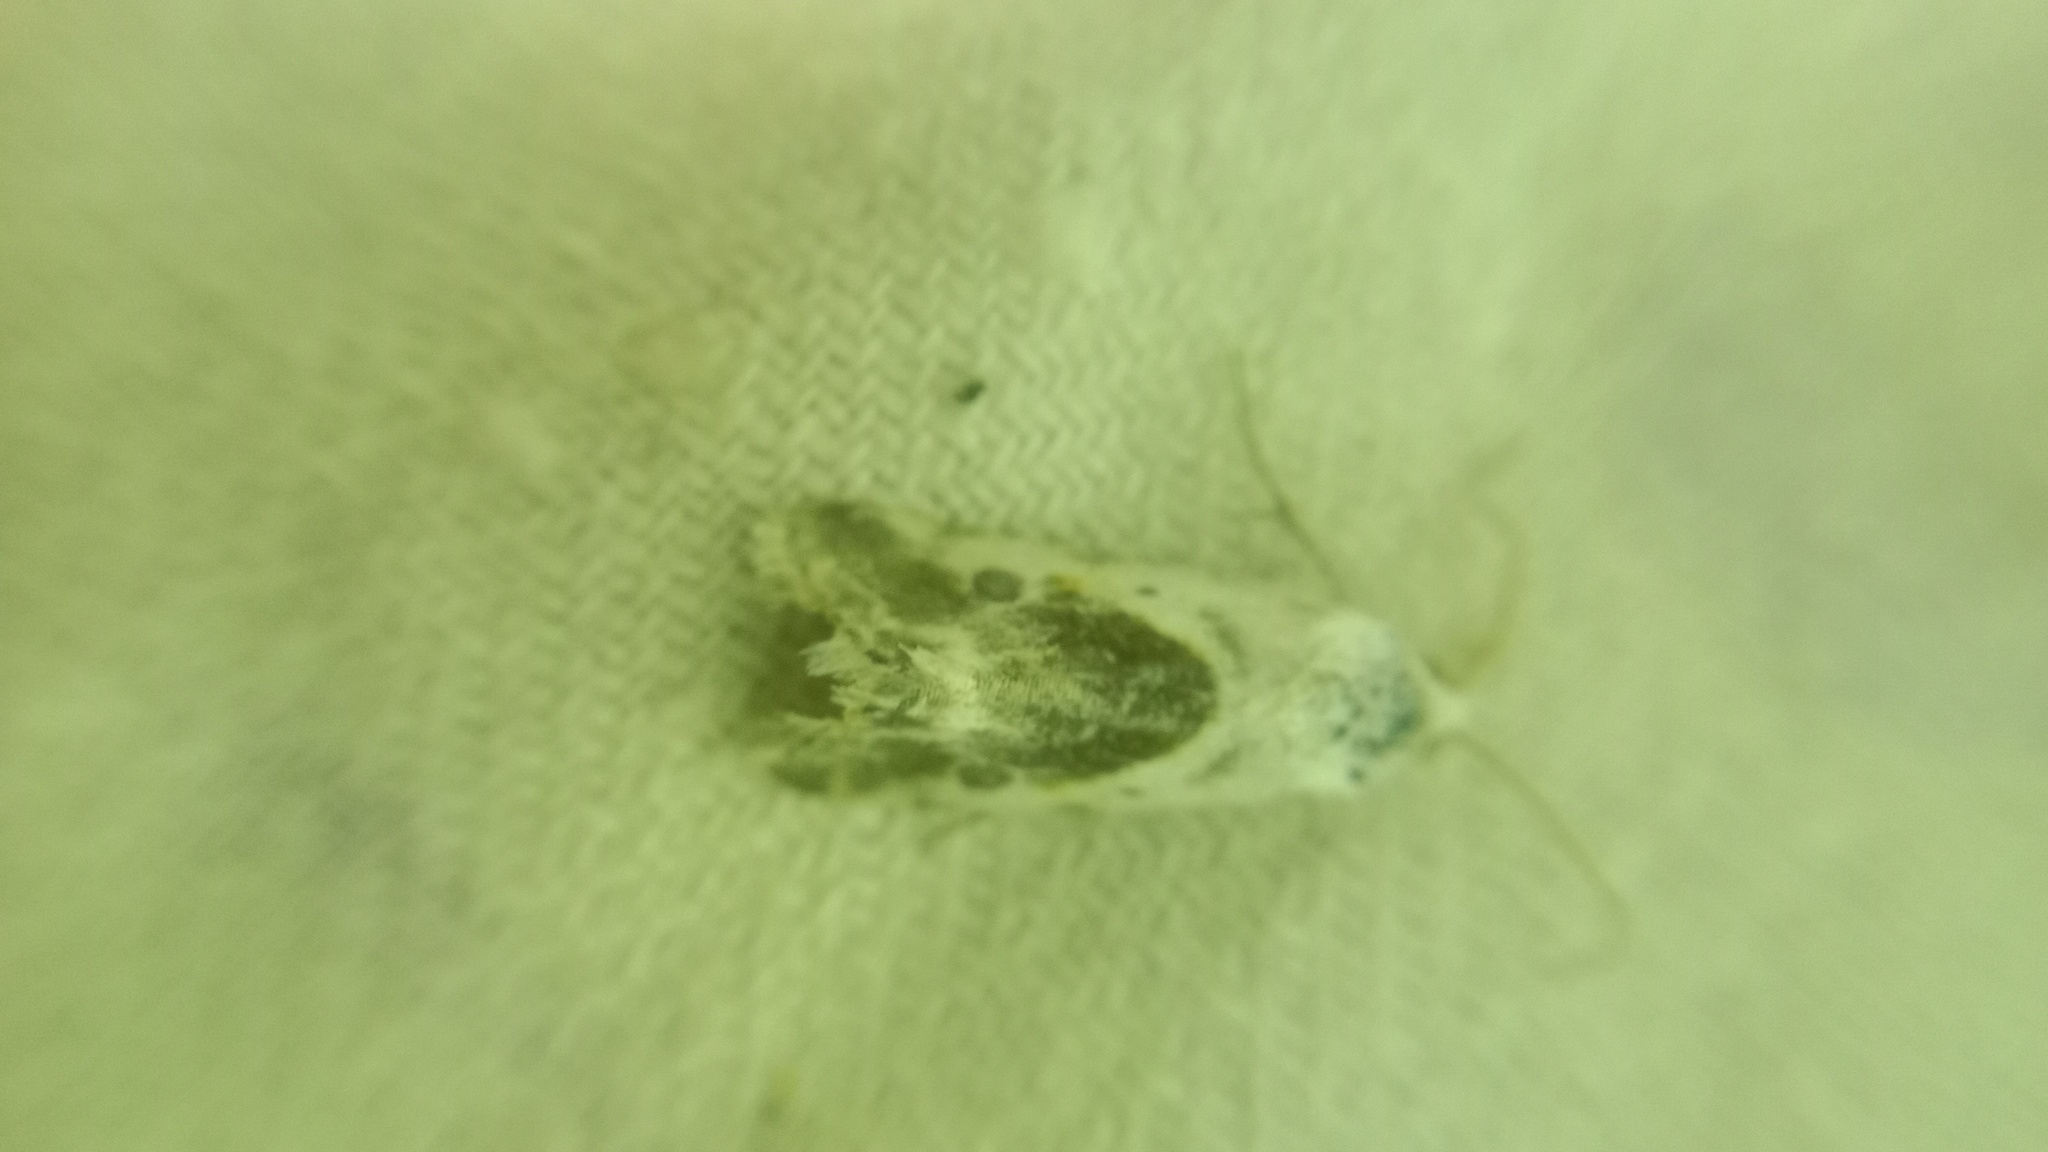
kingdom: Animalia
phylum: Arthropoda
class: Insecta
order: Lepidoptera
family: Noctuidae
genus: Acontia
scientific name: Acontia candefacta
